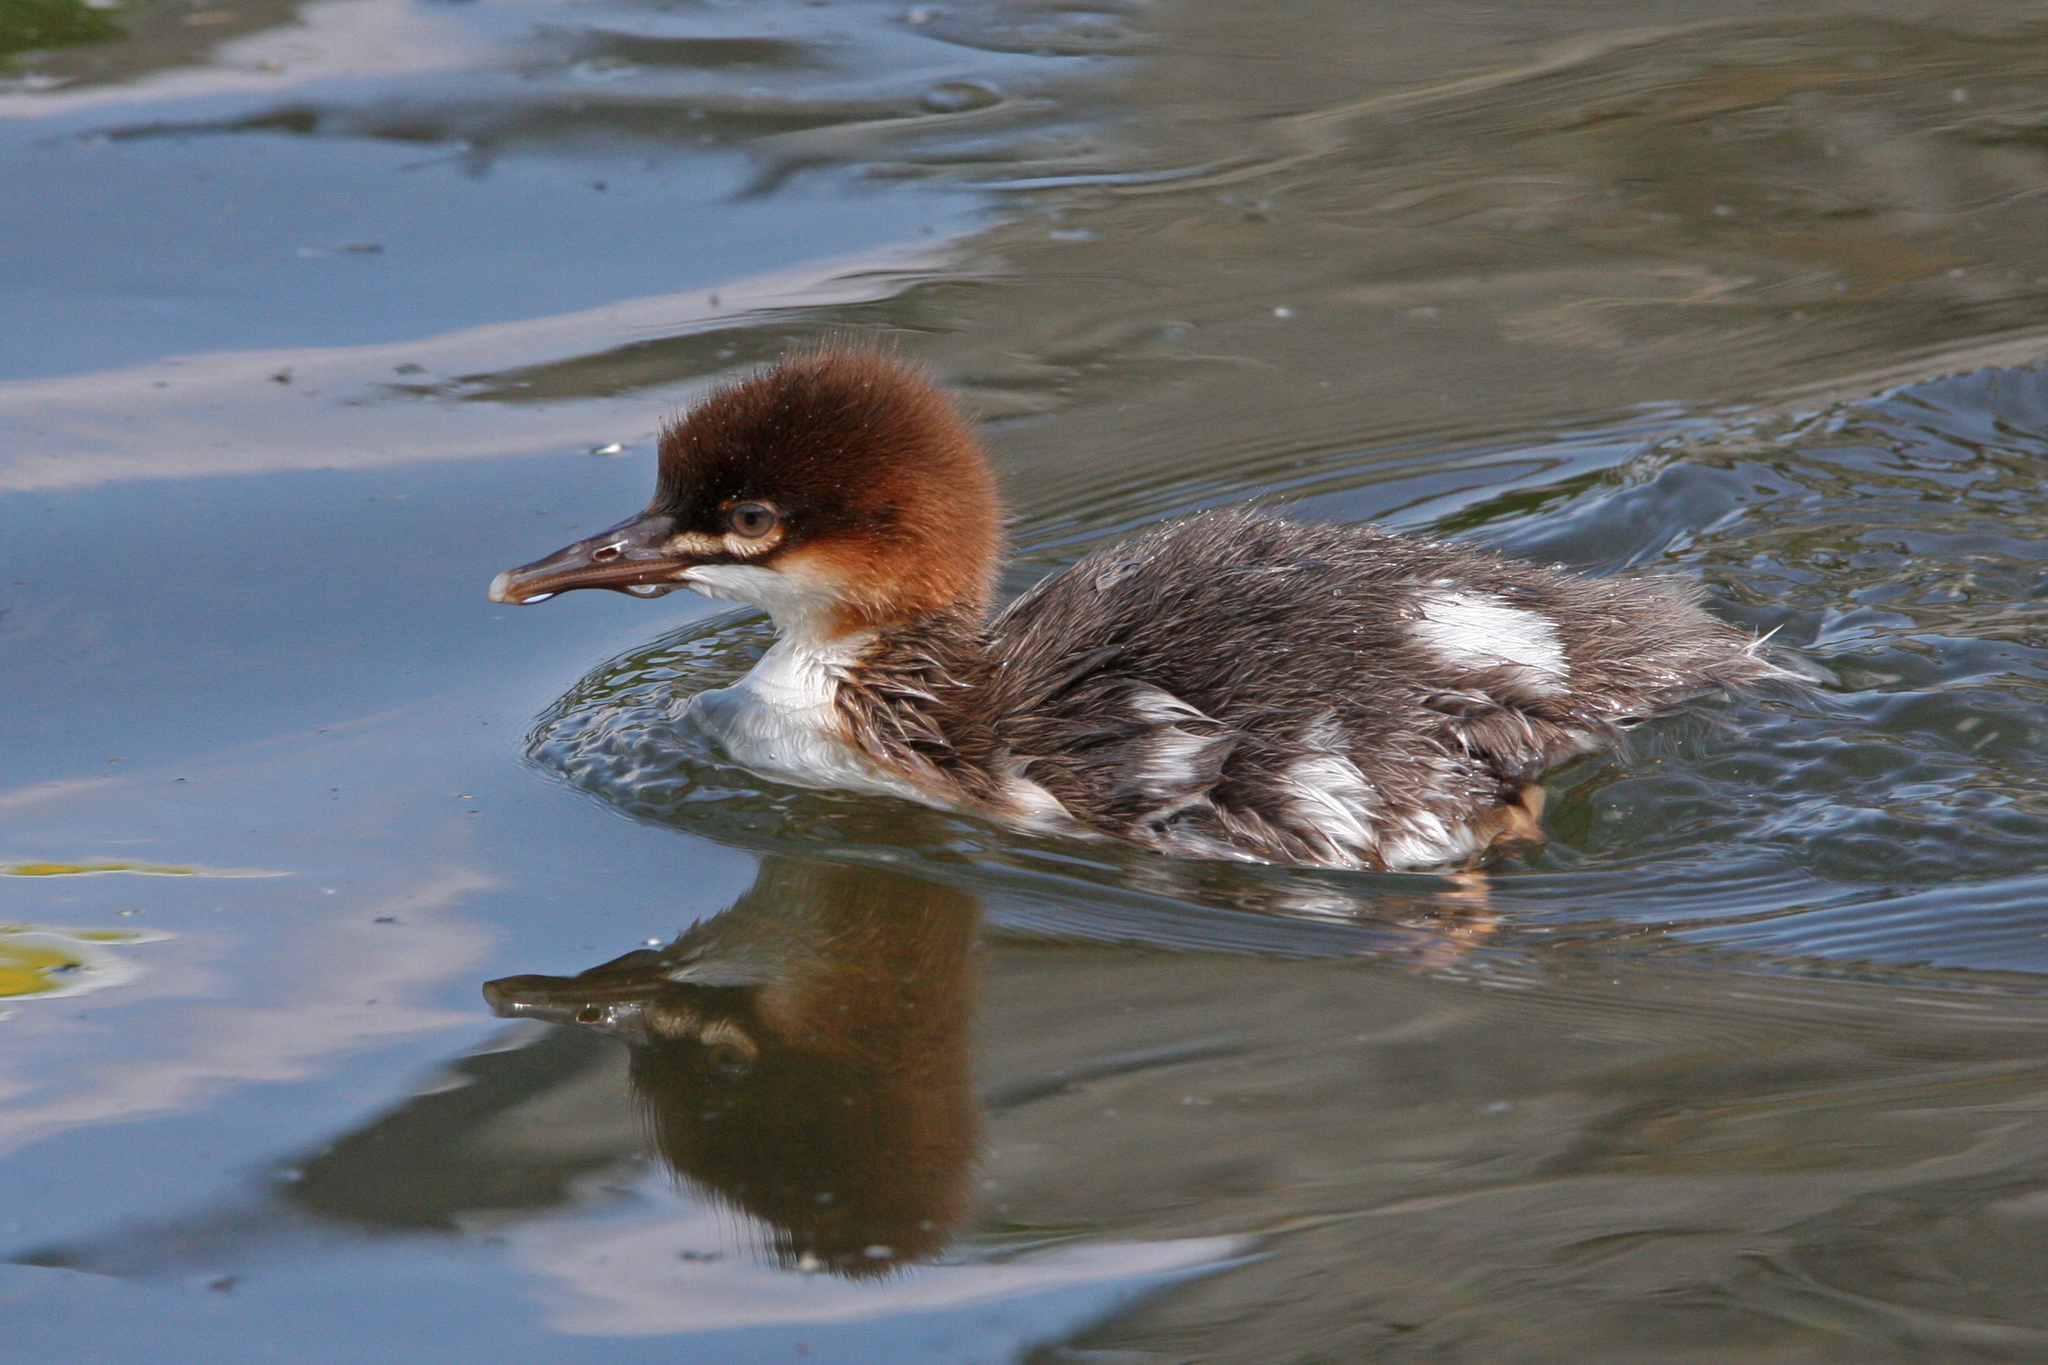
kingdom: Animalia
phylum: Chordata
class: Aves
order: Anseriformes
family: Anatidae
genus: Mergus
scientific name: Mergus merganser
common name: Common merganser
